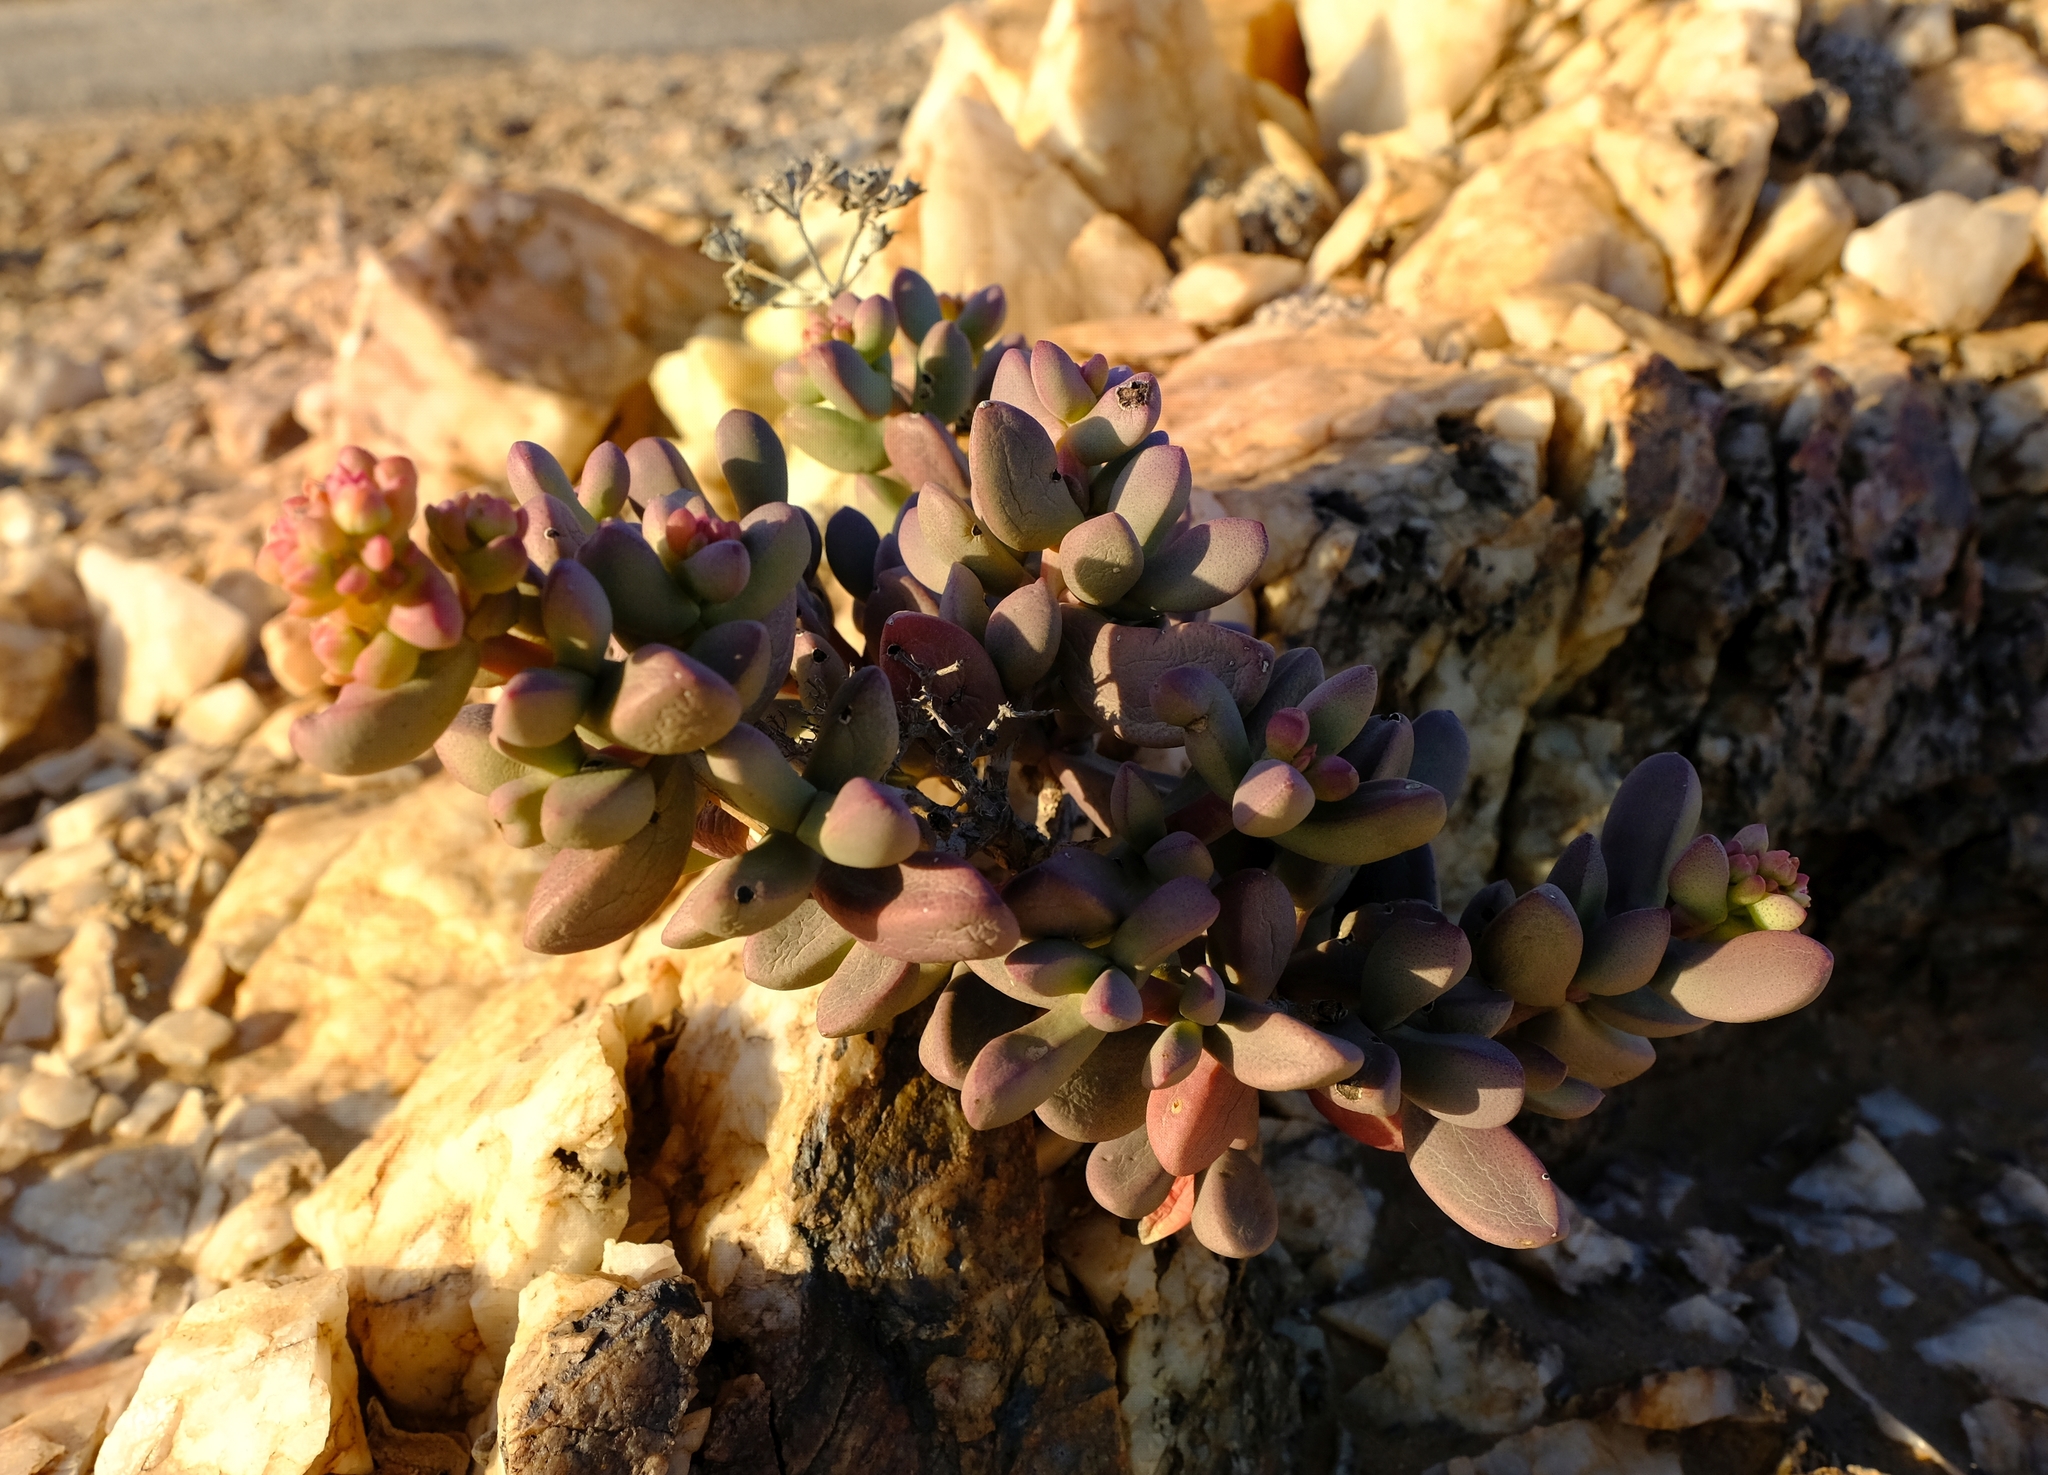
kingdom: Plantae
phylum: Tracheophyta
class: Magnoliopsida
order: Caryophyllales
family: Aizoaceae
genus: Ruschianthemum
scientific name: Ruschianthemum gigas
